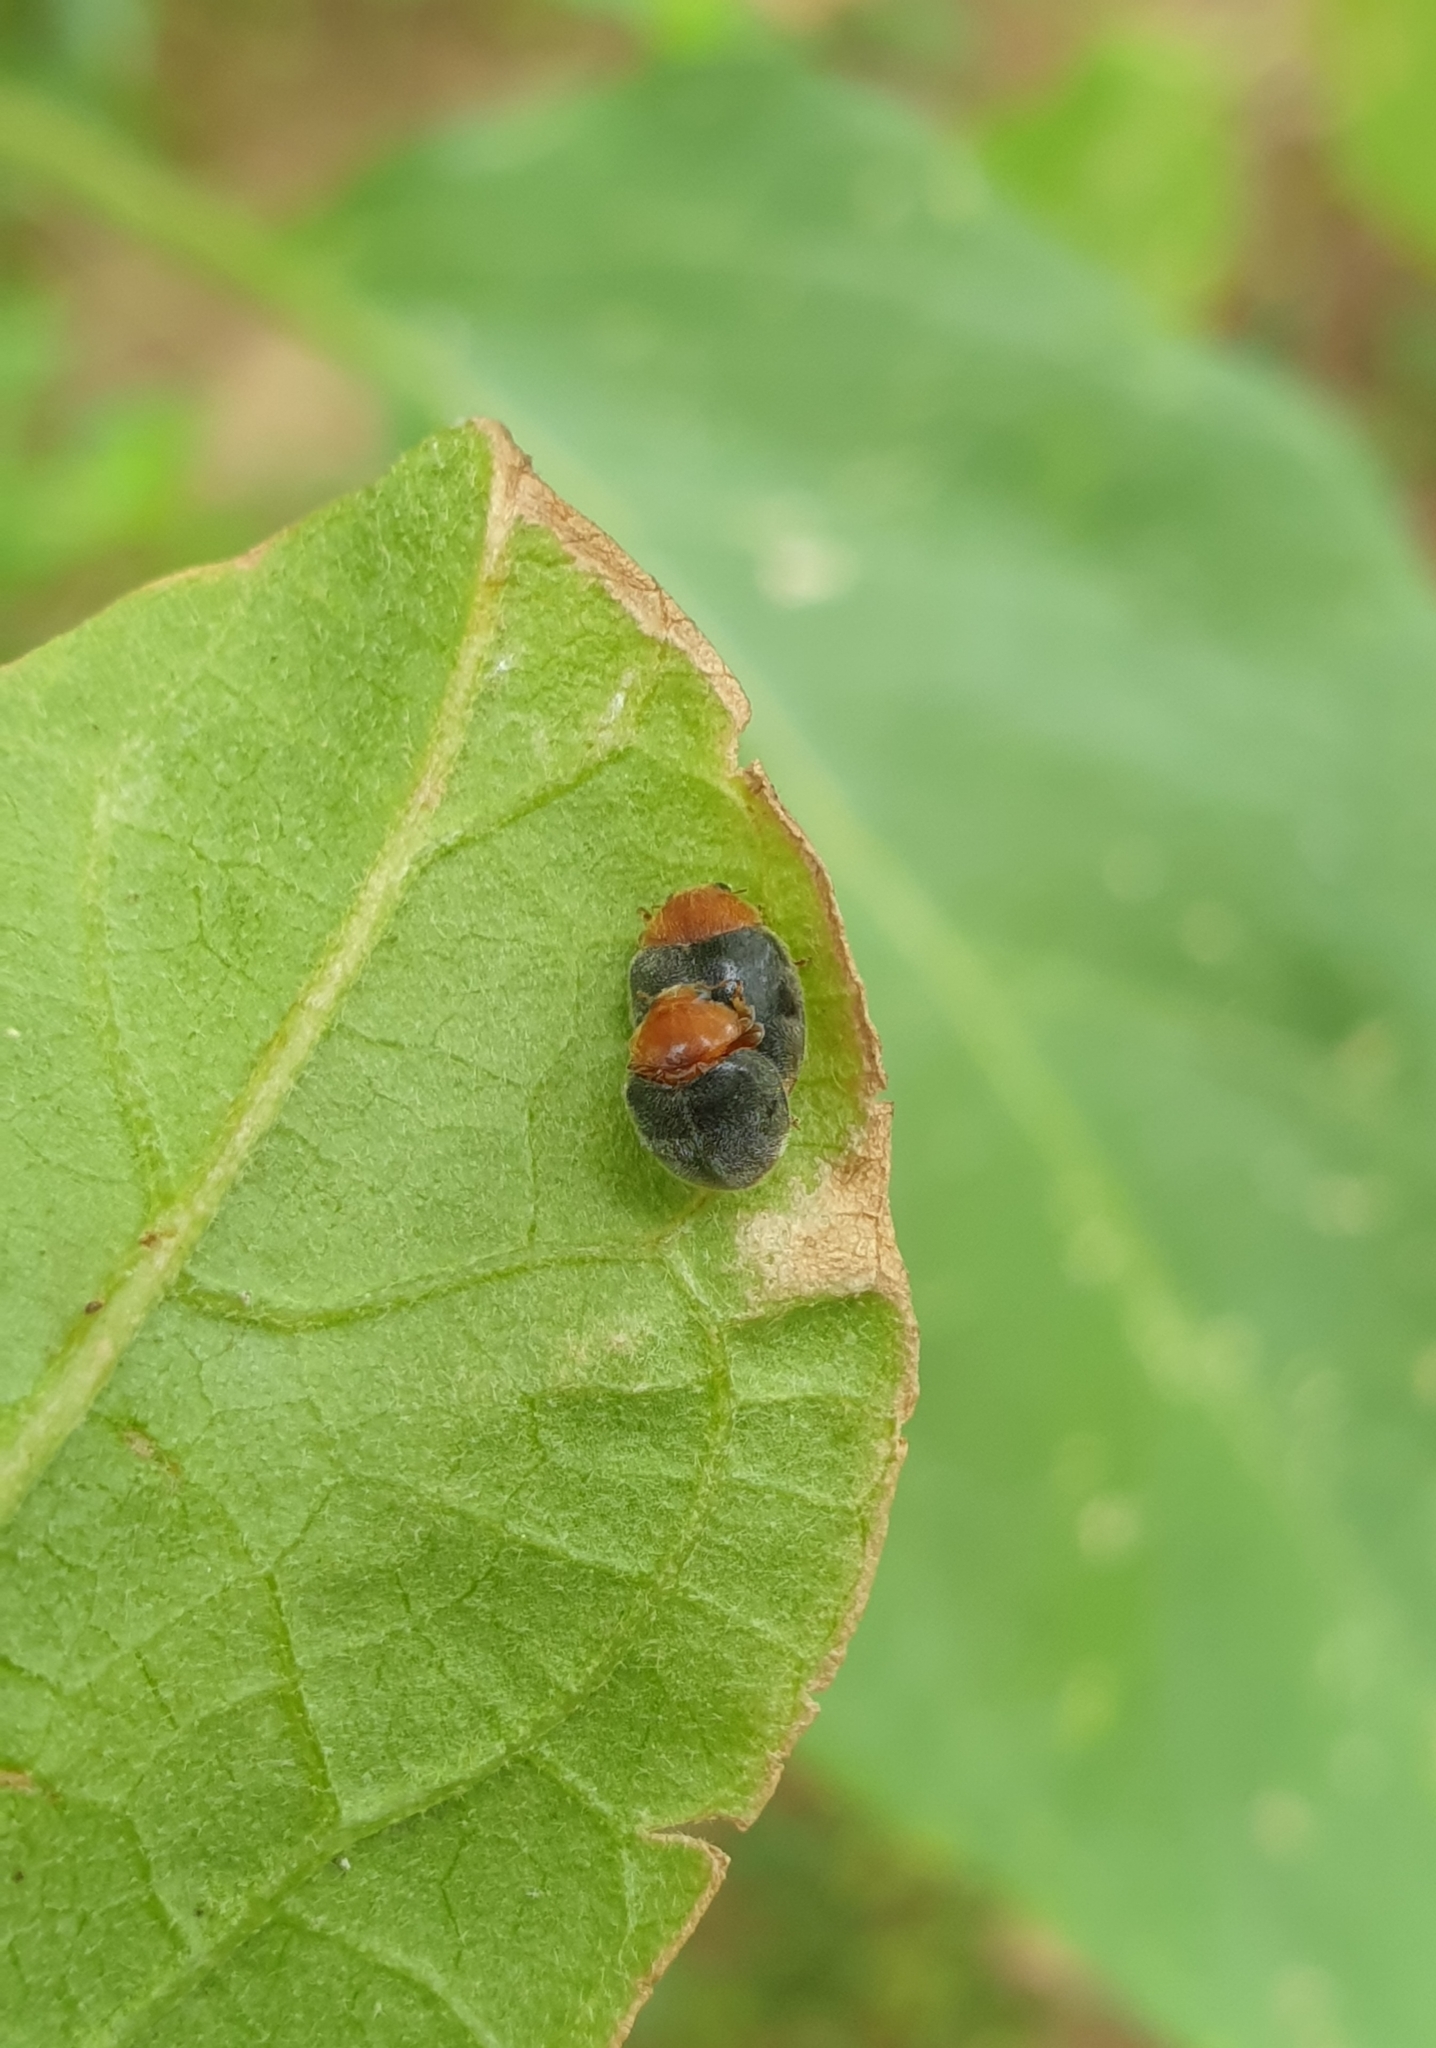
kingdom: Animalia
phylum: Arthropoda
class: Insecta
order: Coleoptera
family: Coccinellidae
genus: Cryptolaemus
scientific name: Cryptolaemus montrouzieri
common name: Mealybug destroyer
